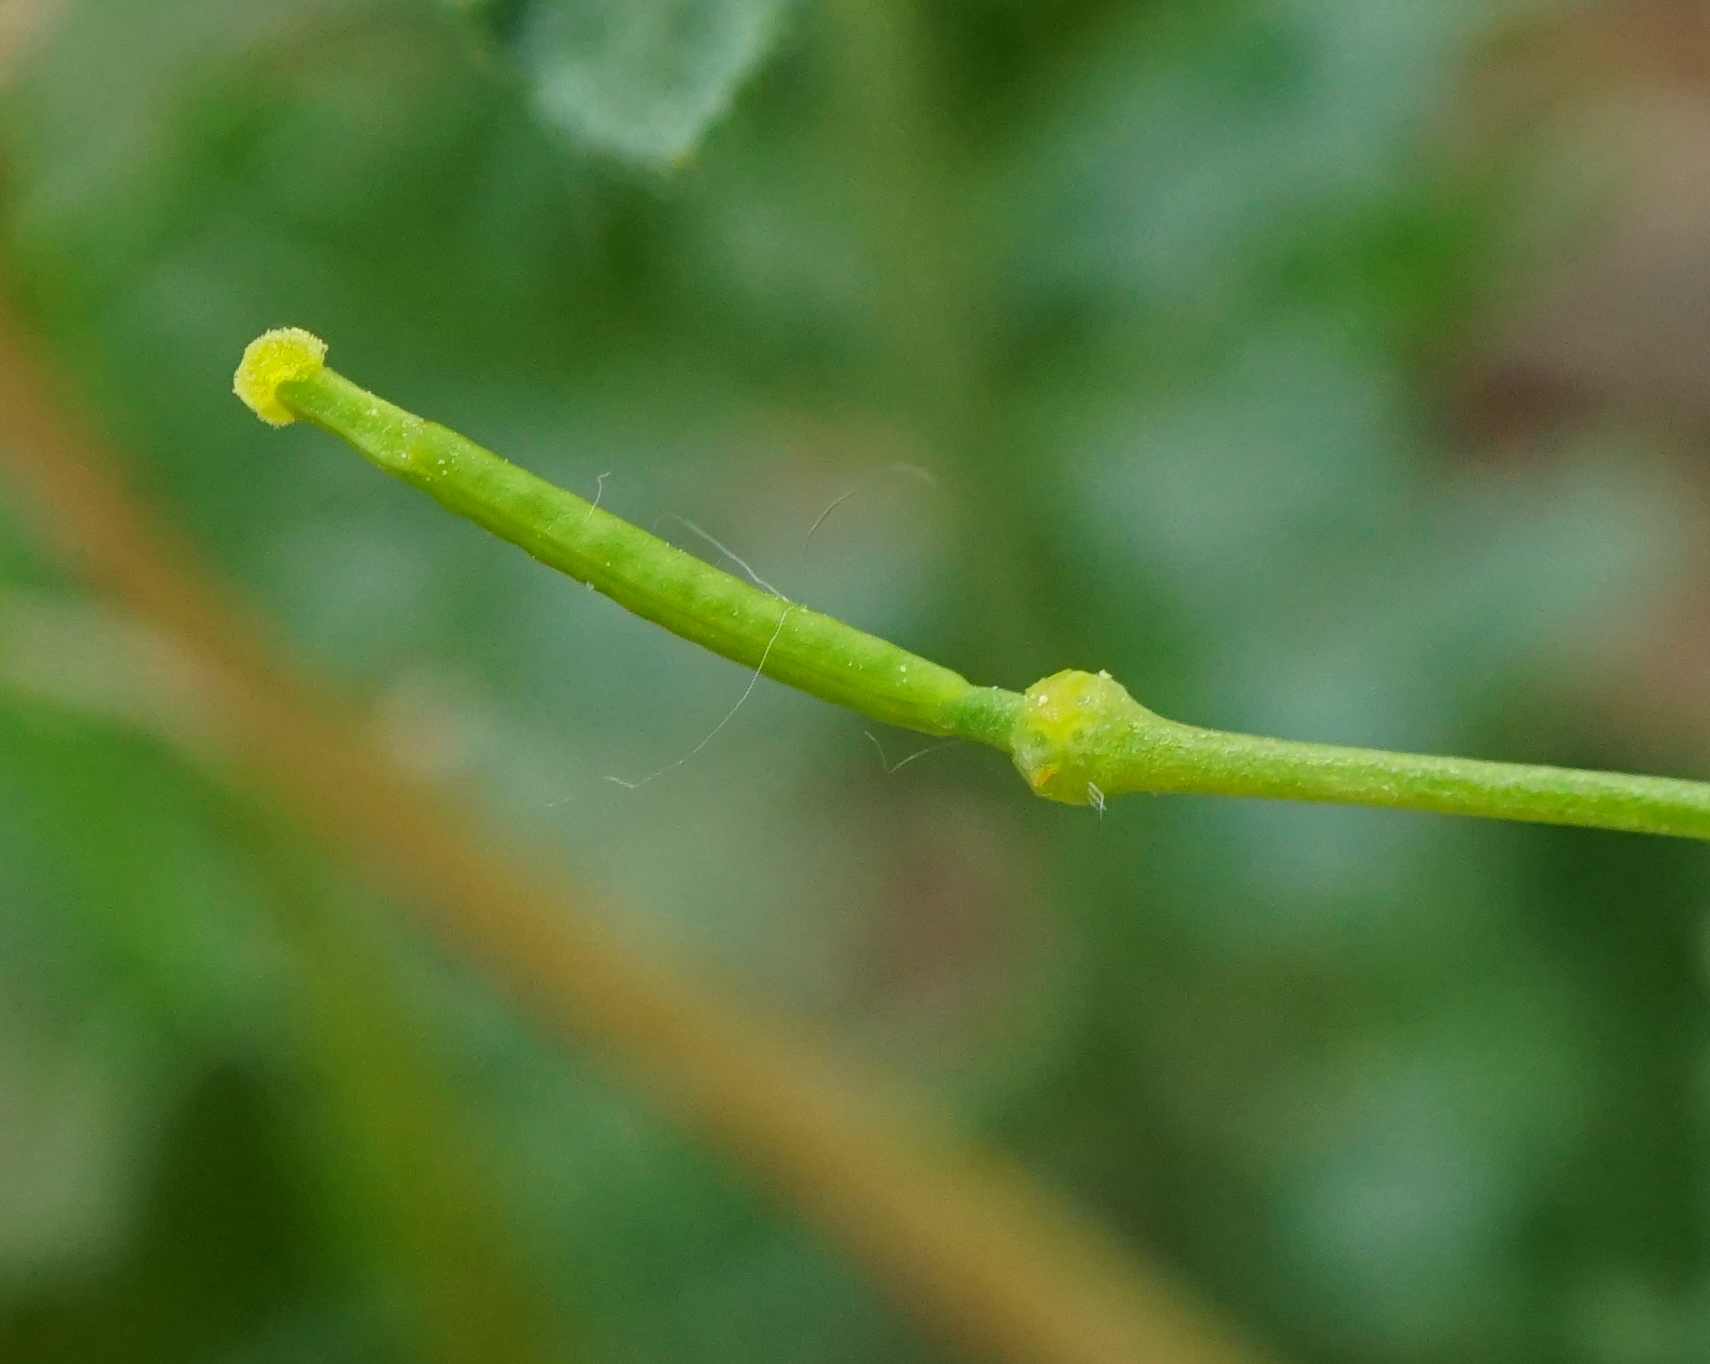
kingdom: Plantae
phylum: Tracheophyta
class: Magnoliopsida
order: Brassicales
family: Brassicaceae
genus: Erucastrum
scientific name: Erucastrum nasturtiifolium
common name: Watercress-leaf rocket
